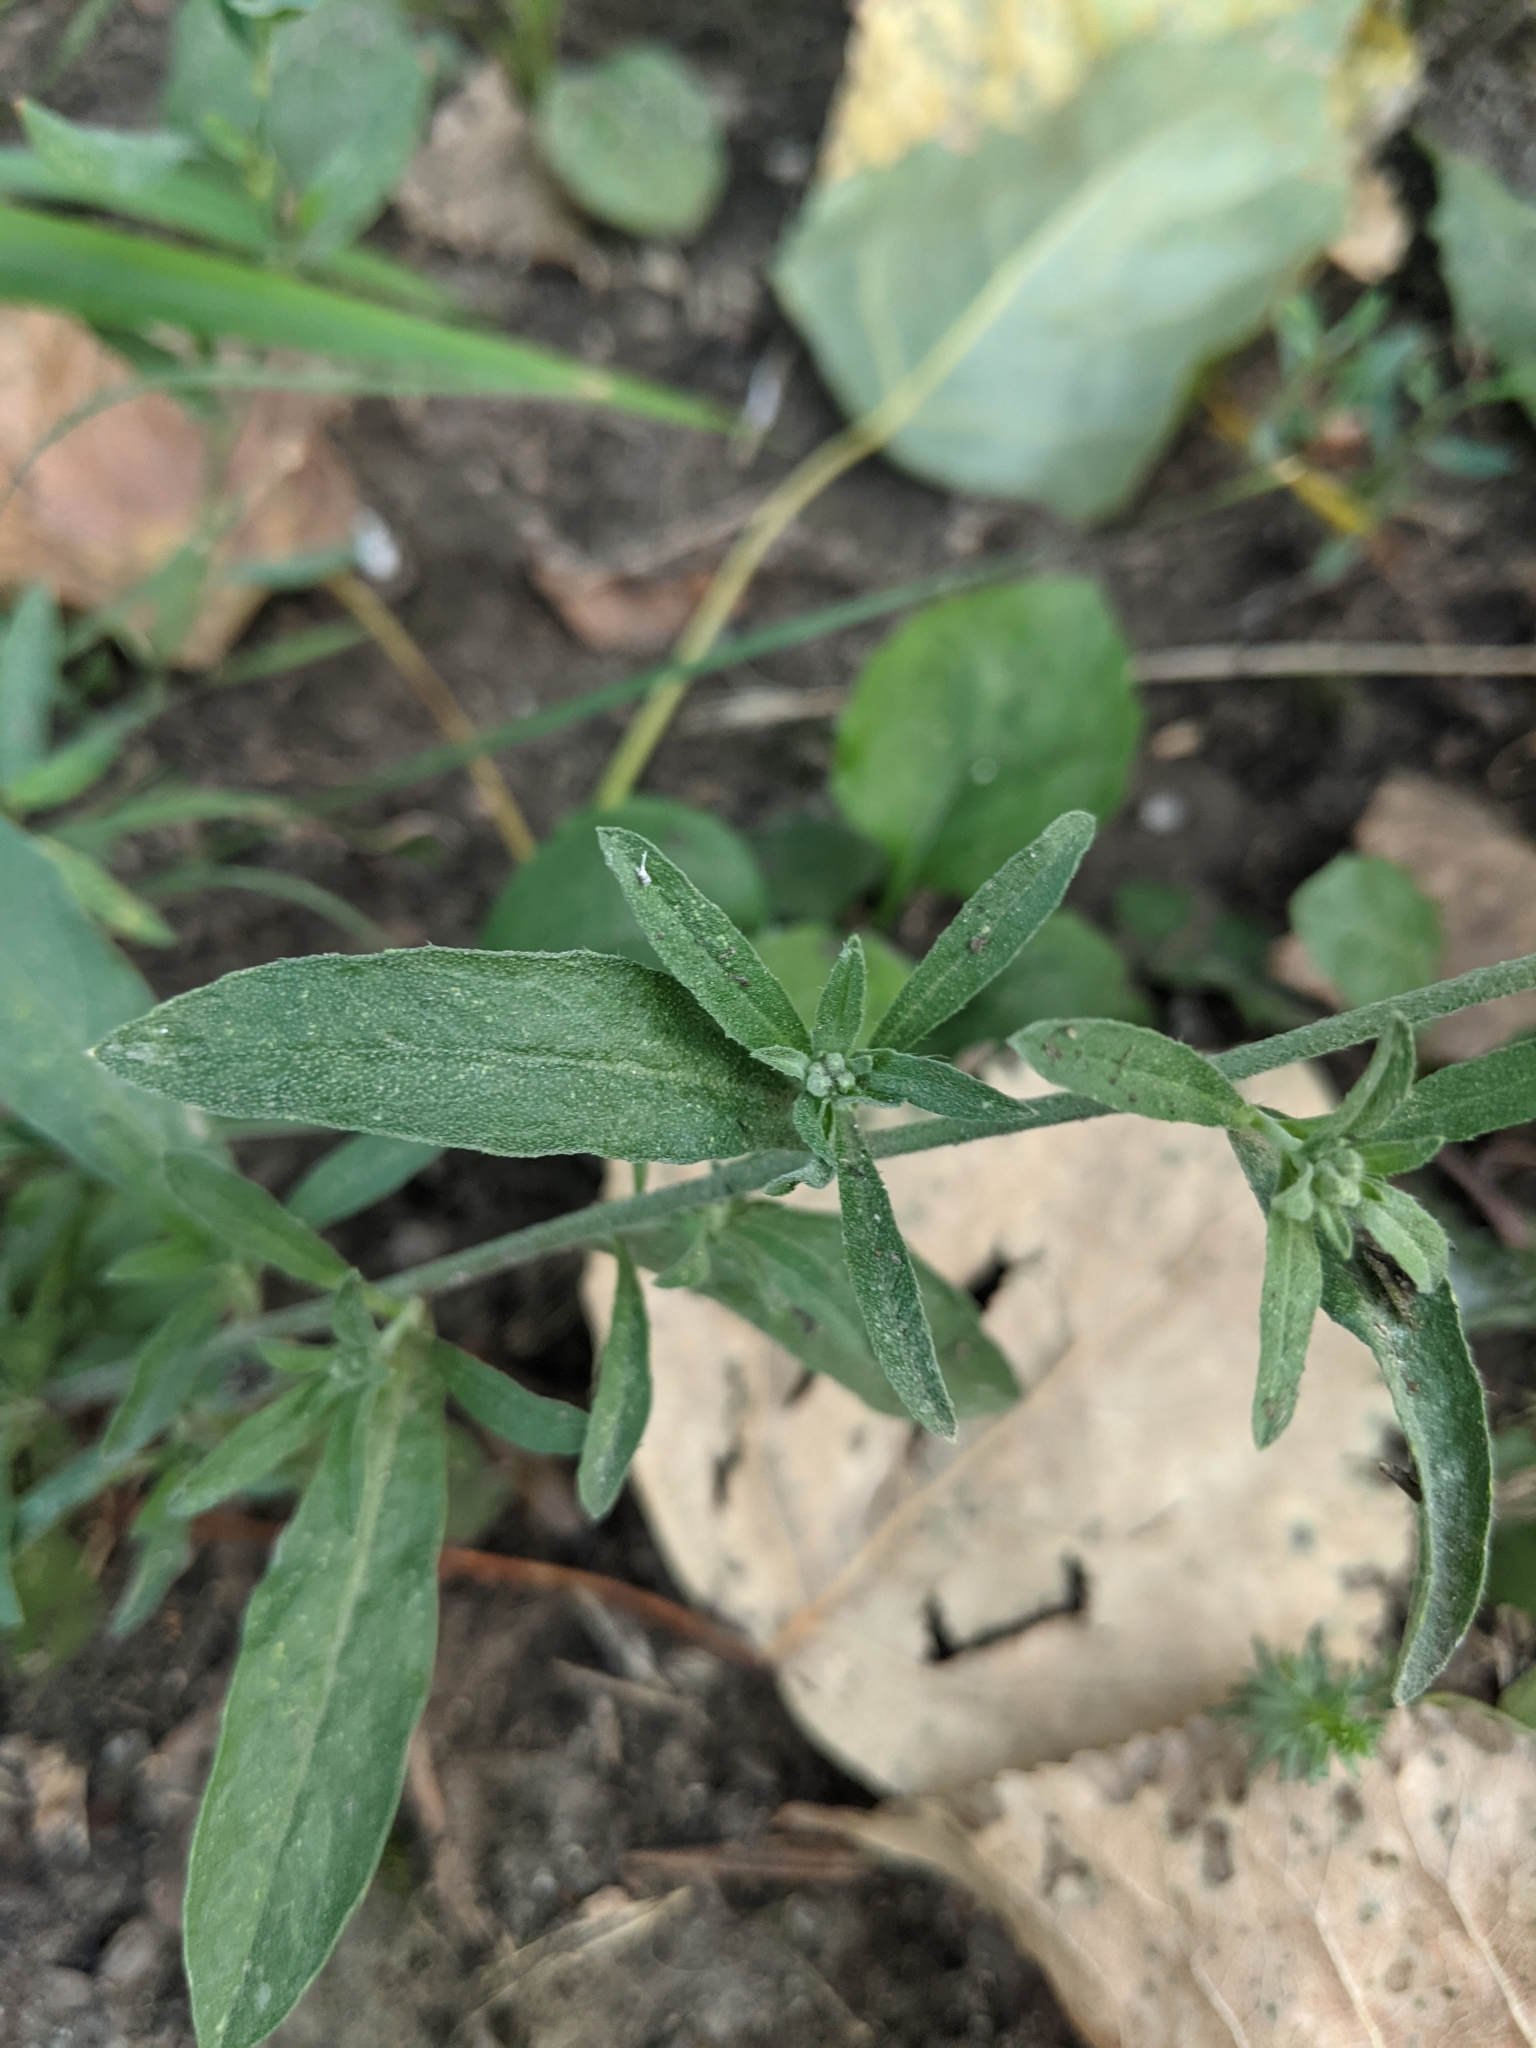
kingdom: Plantae
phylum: Tracheophyta
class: Magnoliopsida
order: Brassicales
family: Brassicaceae
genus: Berteroa
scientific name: Berteroa incana
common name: Hoary alison
